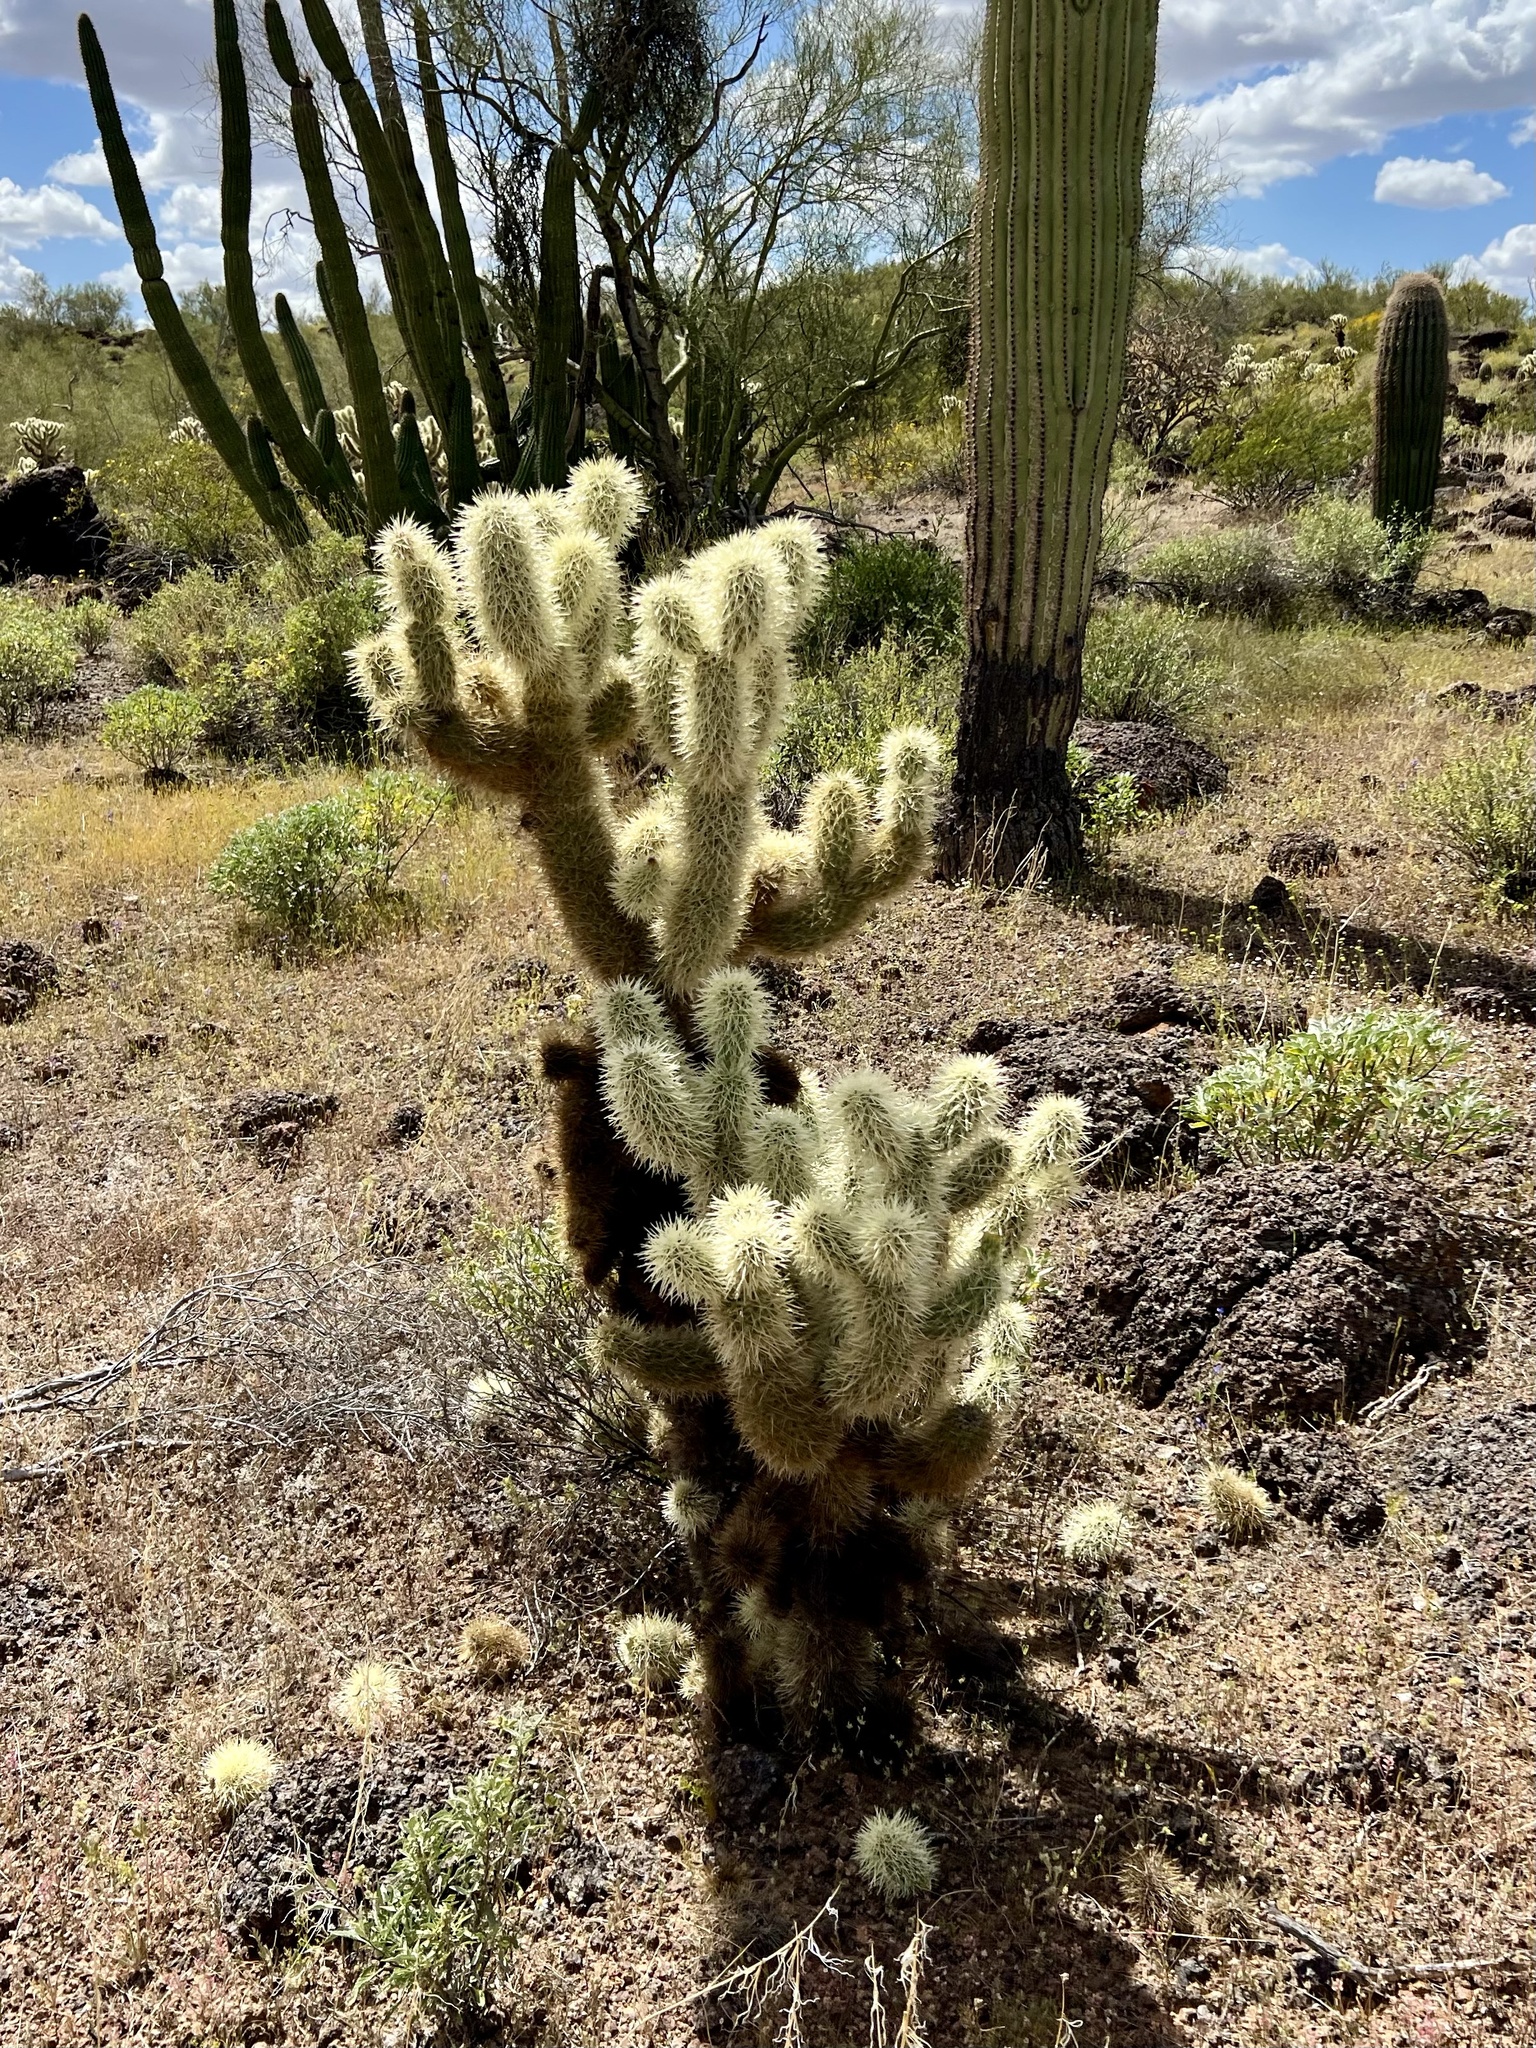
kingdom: Plantae
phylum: Tracheophyta
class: Magnoliopsida
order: Caryophyllales
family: Cactaceae
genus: Cylindropuntia
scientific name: Cylindropuntia fosbergii
